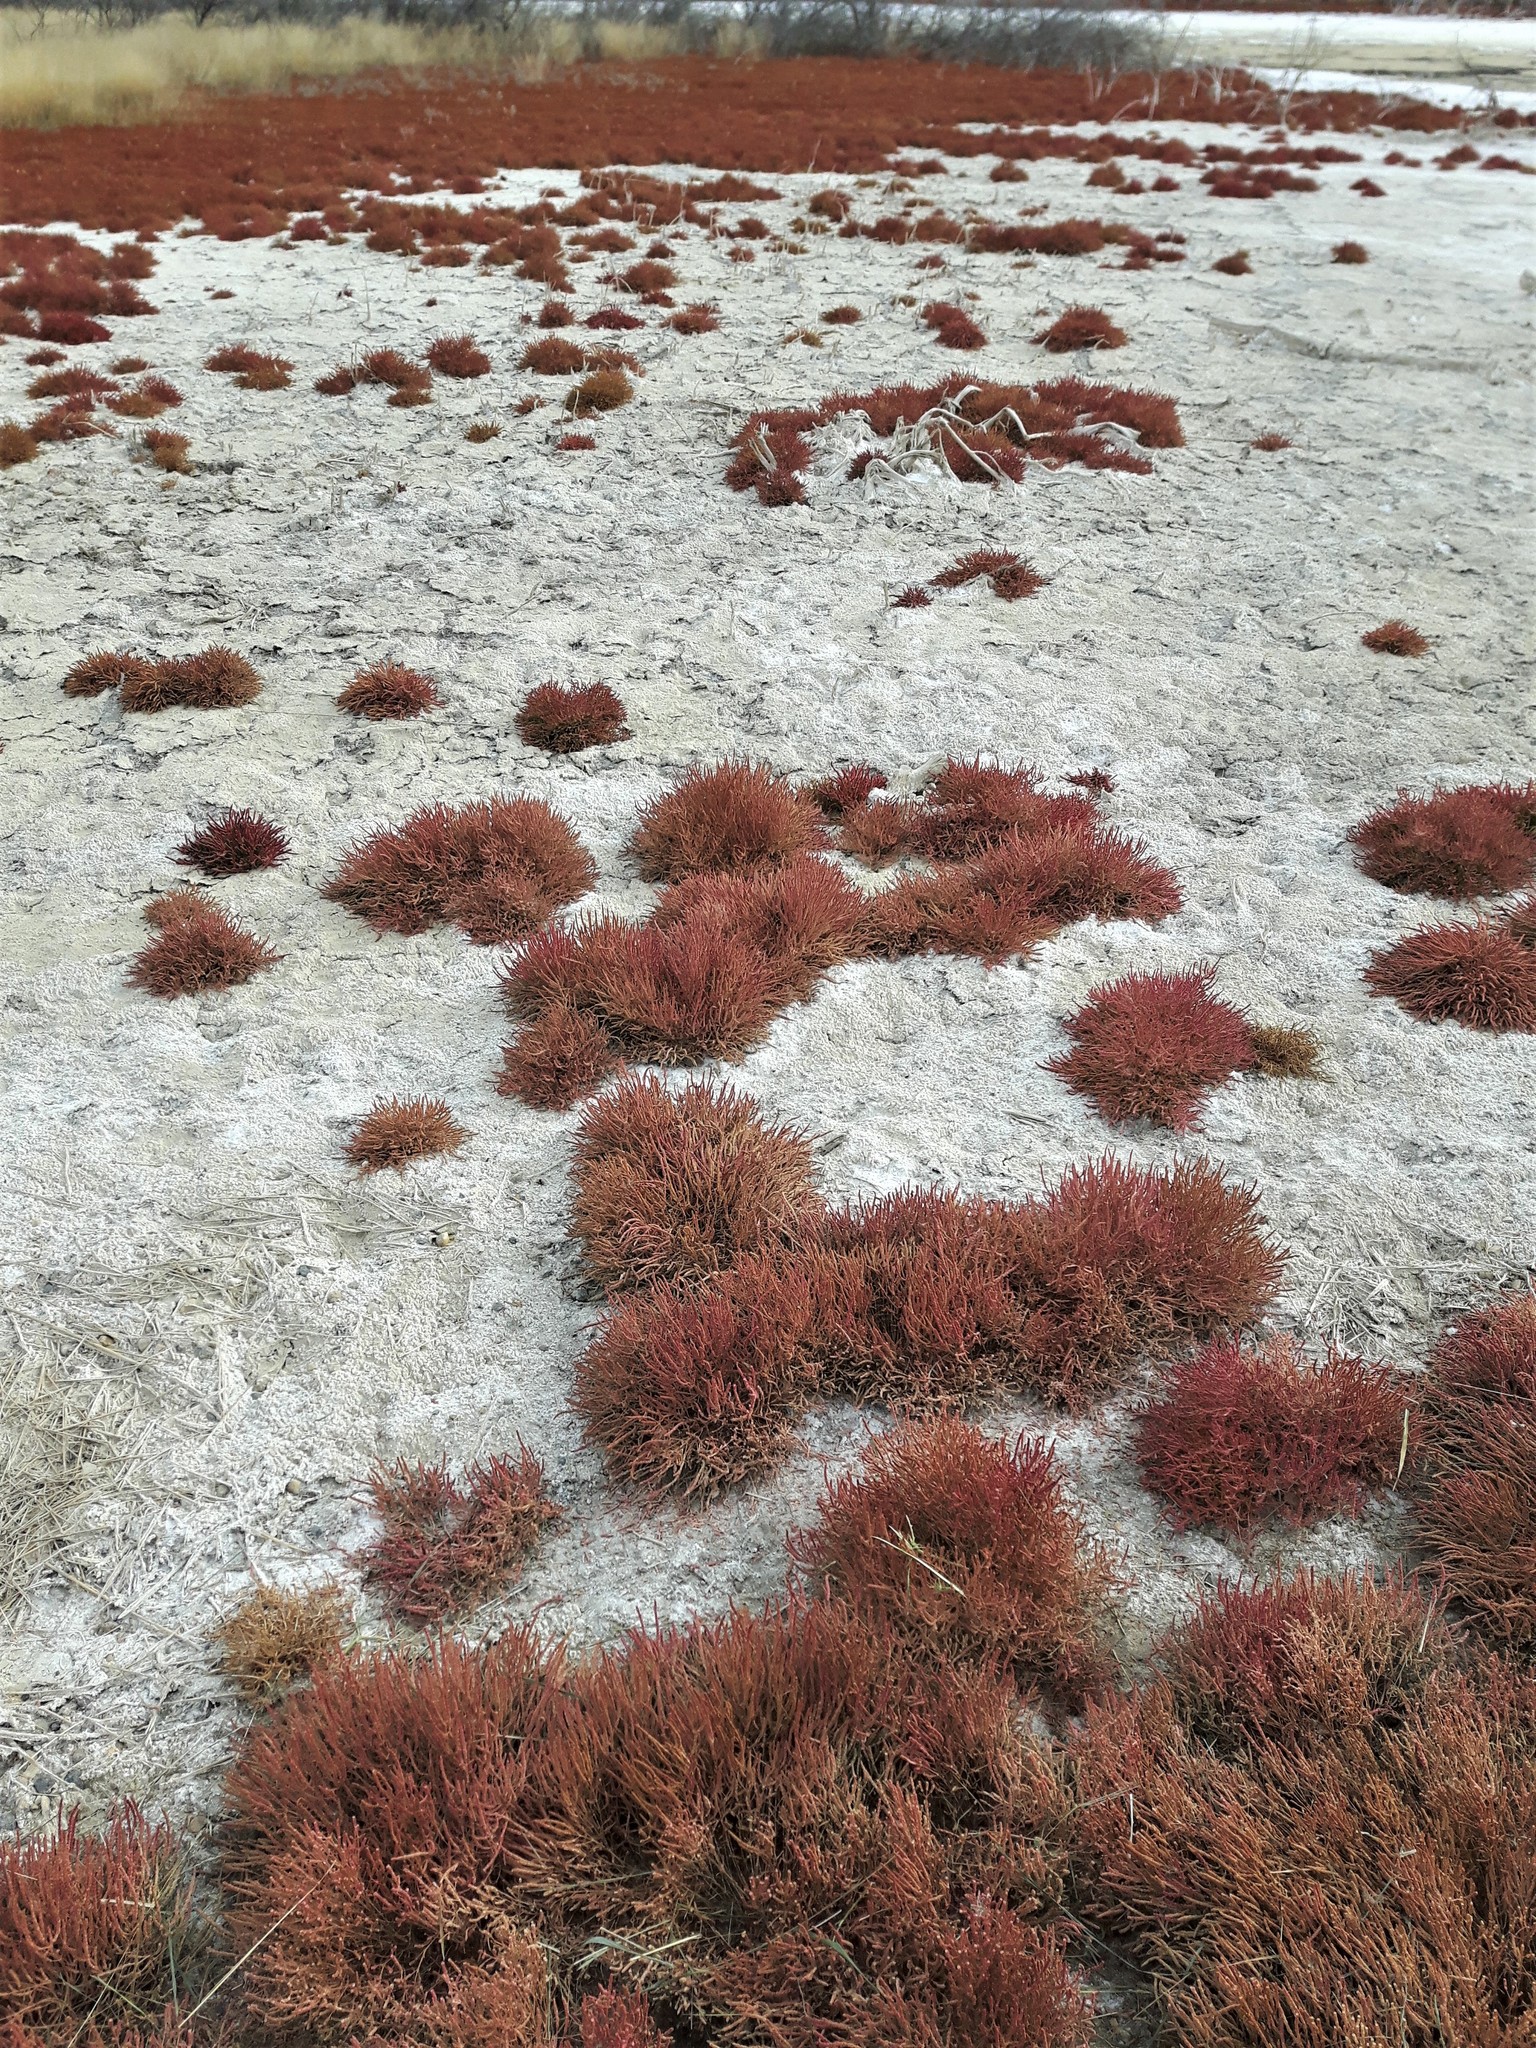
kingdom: Plantae
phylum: Tracheophyta
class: Magnoliopsida
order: Caryophyllales
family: Amaranthaceae
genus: Salicornia
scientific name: Salicornia rubra
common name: Red glasswort
